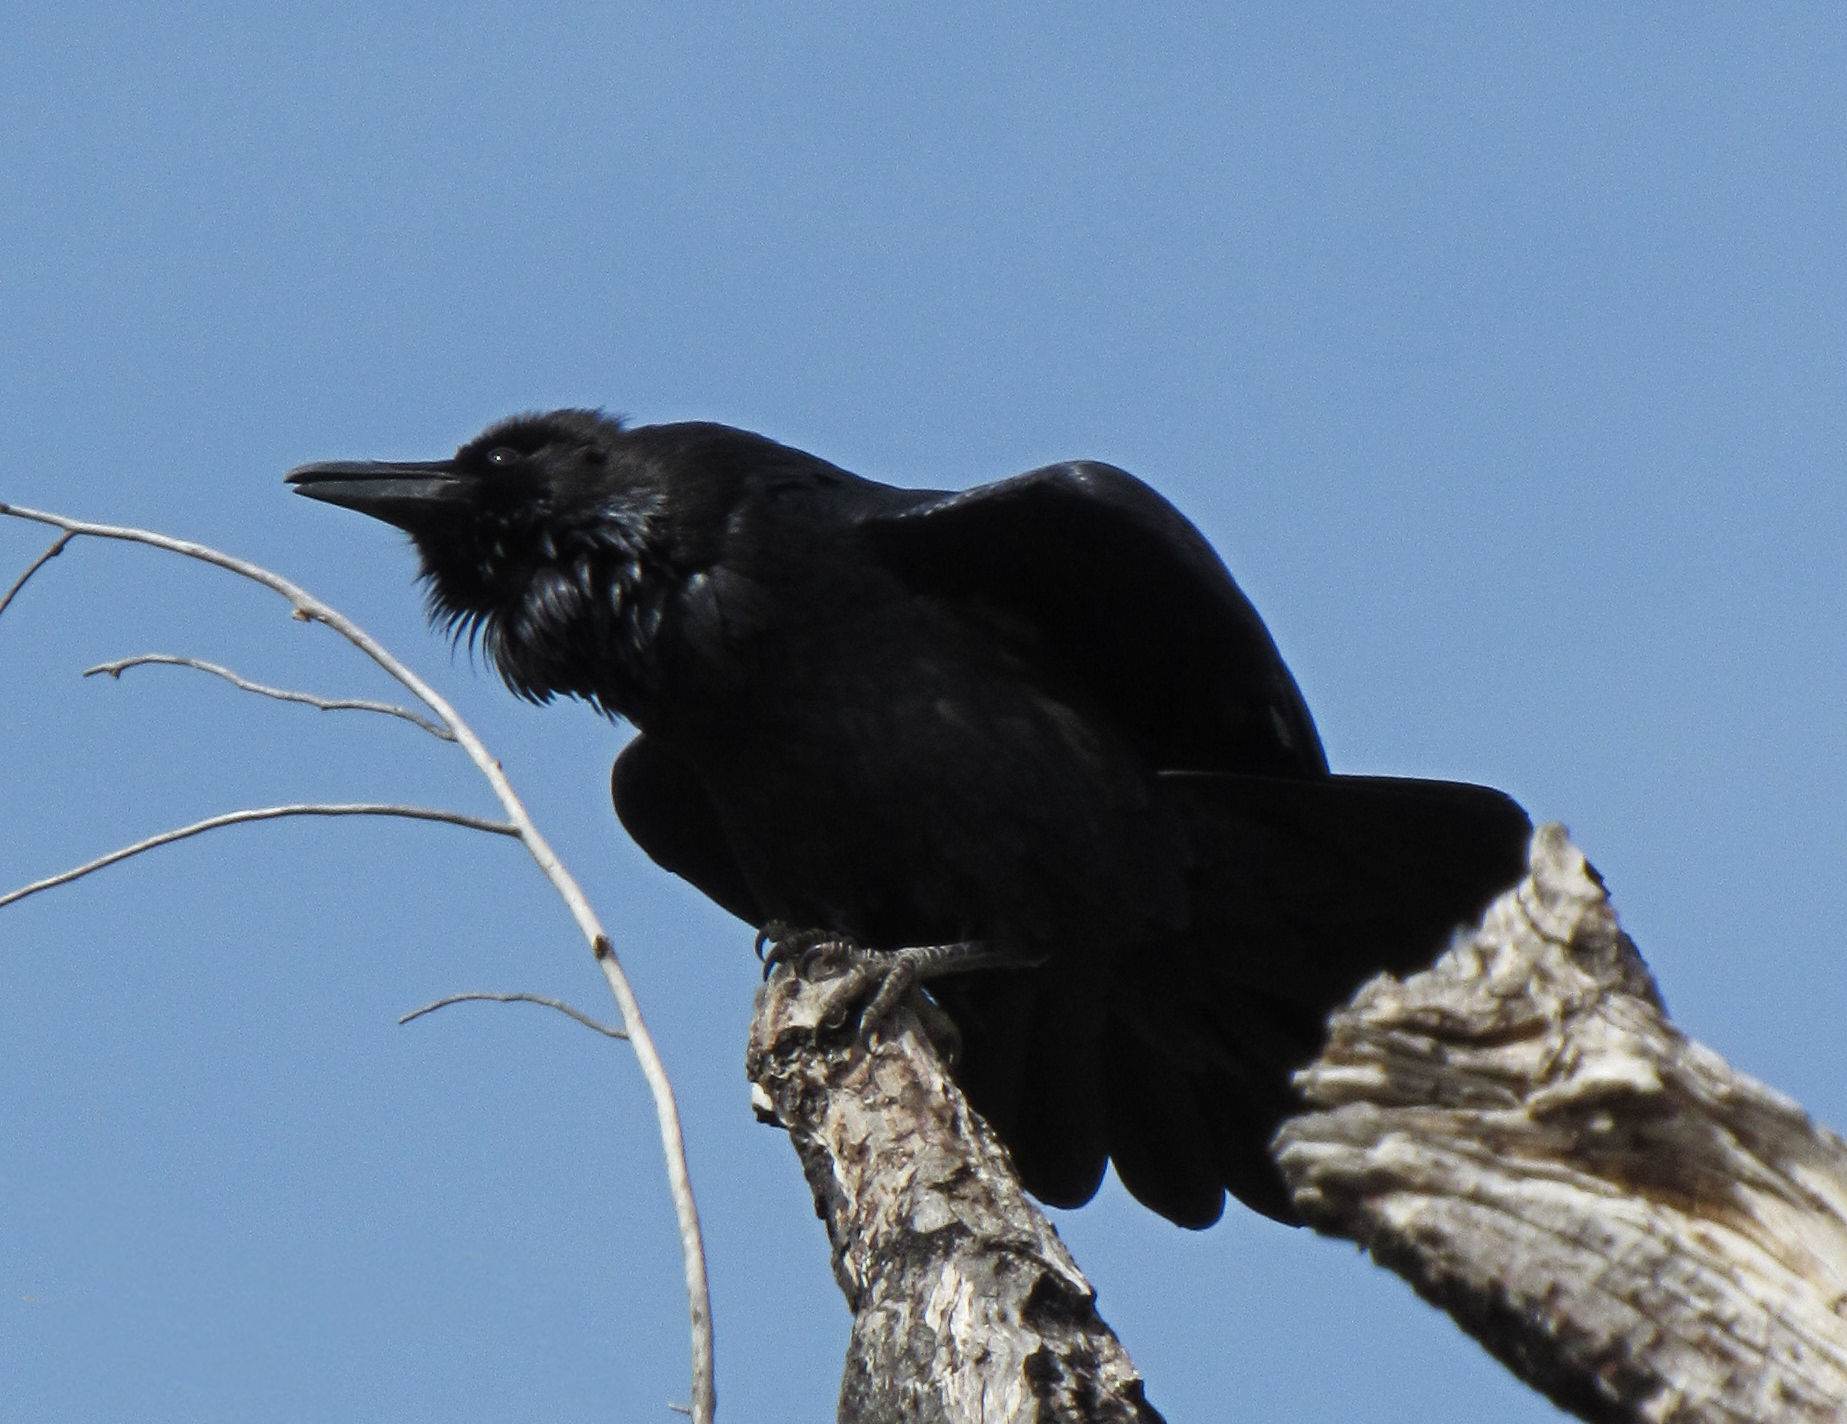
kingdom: Animalia
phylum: Chordata
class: Aves
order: Passeriformes
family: Corvidae
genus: Corvus
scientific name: Corvus corax
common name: Common raven
